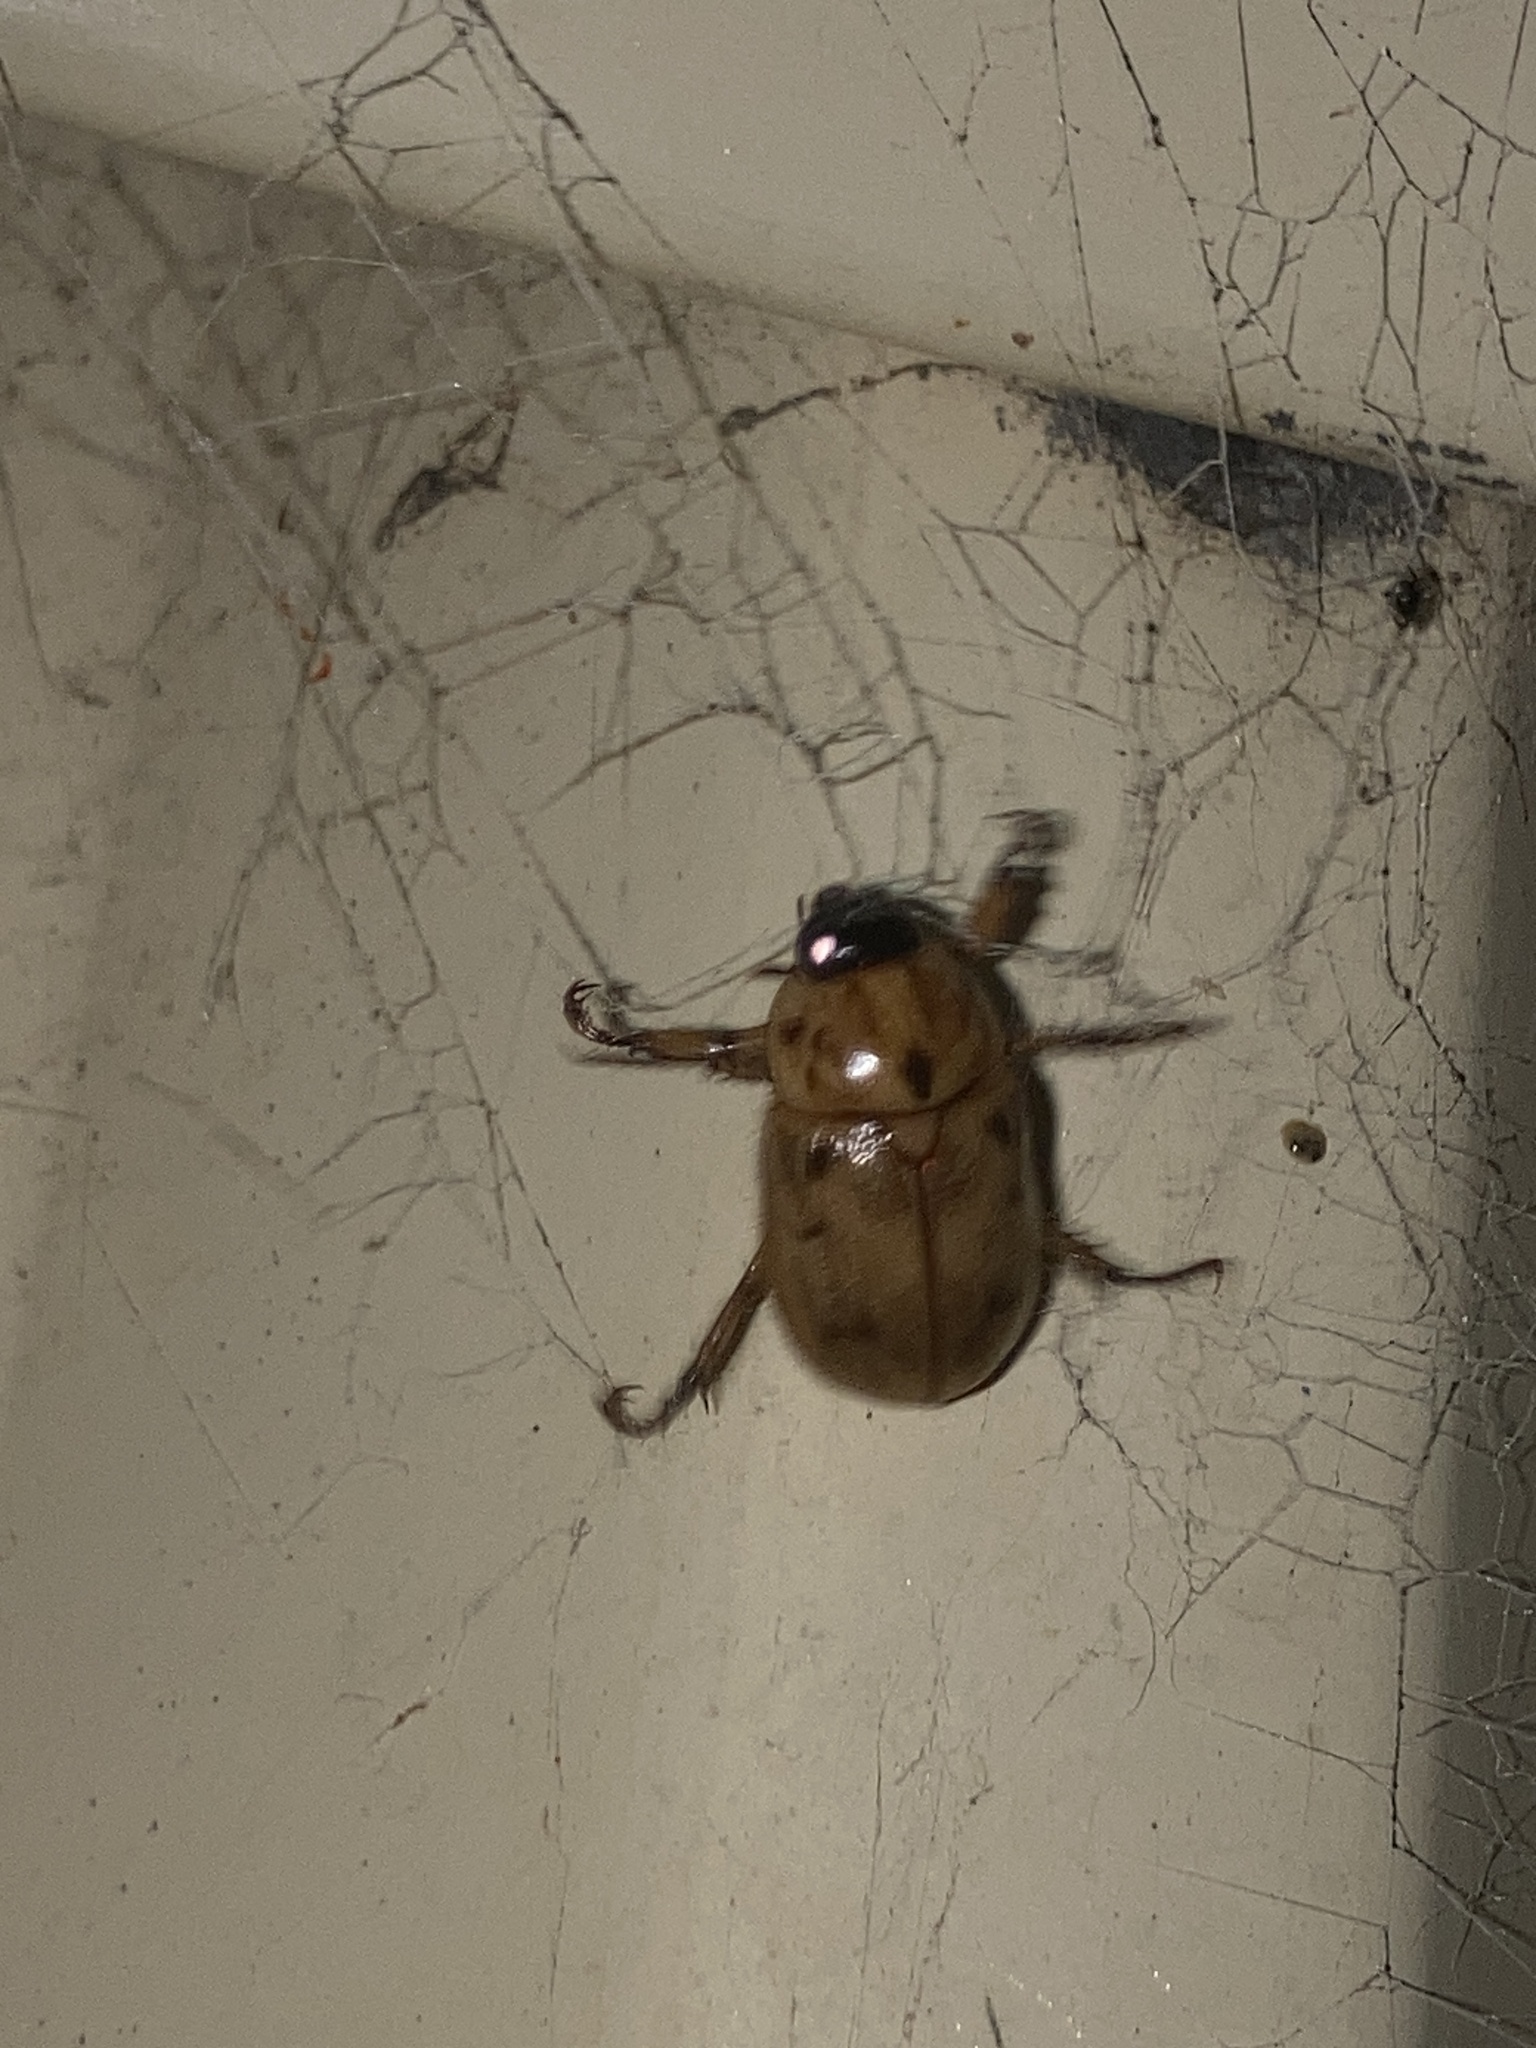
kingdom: Animalia
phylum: Arthropoda
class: Insecta
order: Coleoptera
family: Scarabaeidae
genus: Cyclocephala
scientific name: Cyclocephala signaticollis
